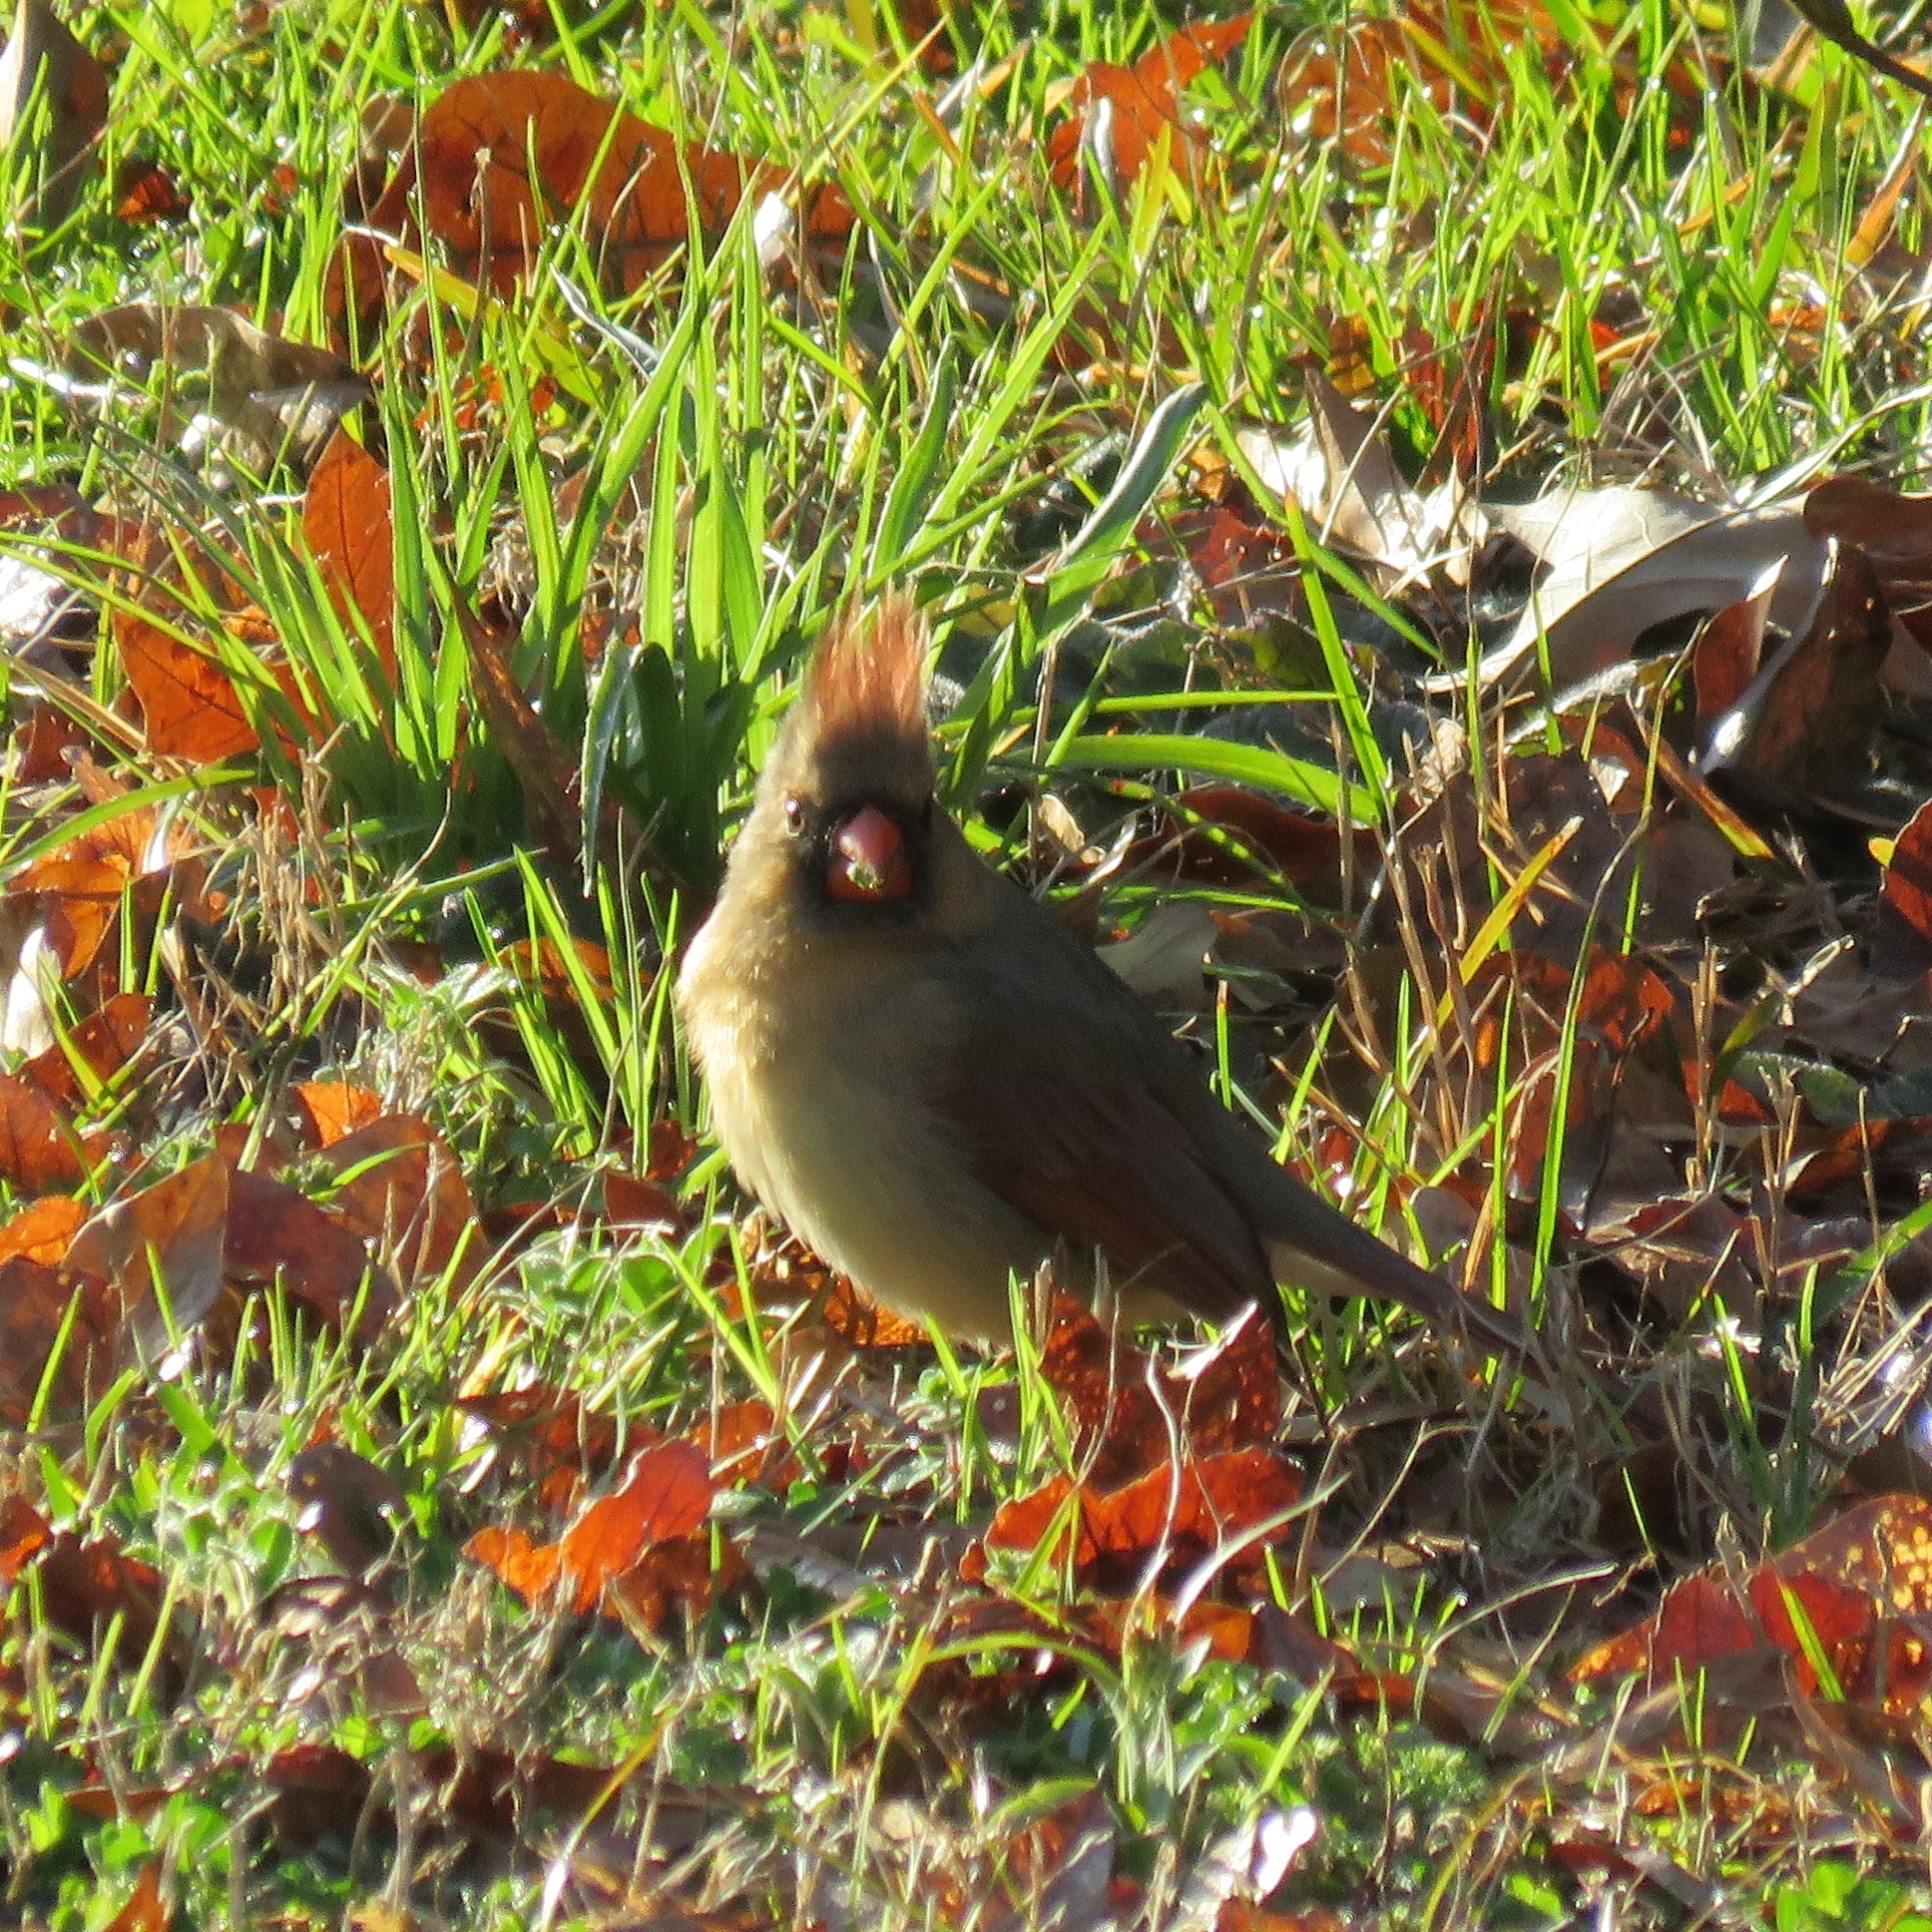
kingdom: Animalia
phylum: Chordata
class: Aves
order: Passeriformes
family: Cardinalidae
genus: Cardinalis
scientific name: Cardinalis cardinalis
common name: Northern cardinal
